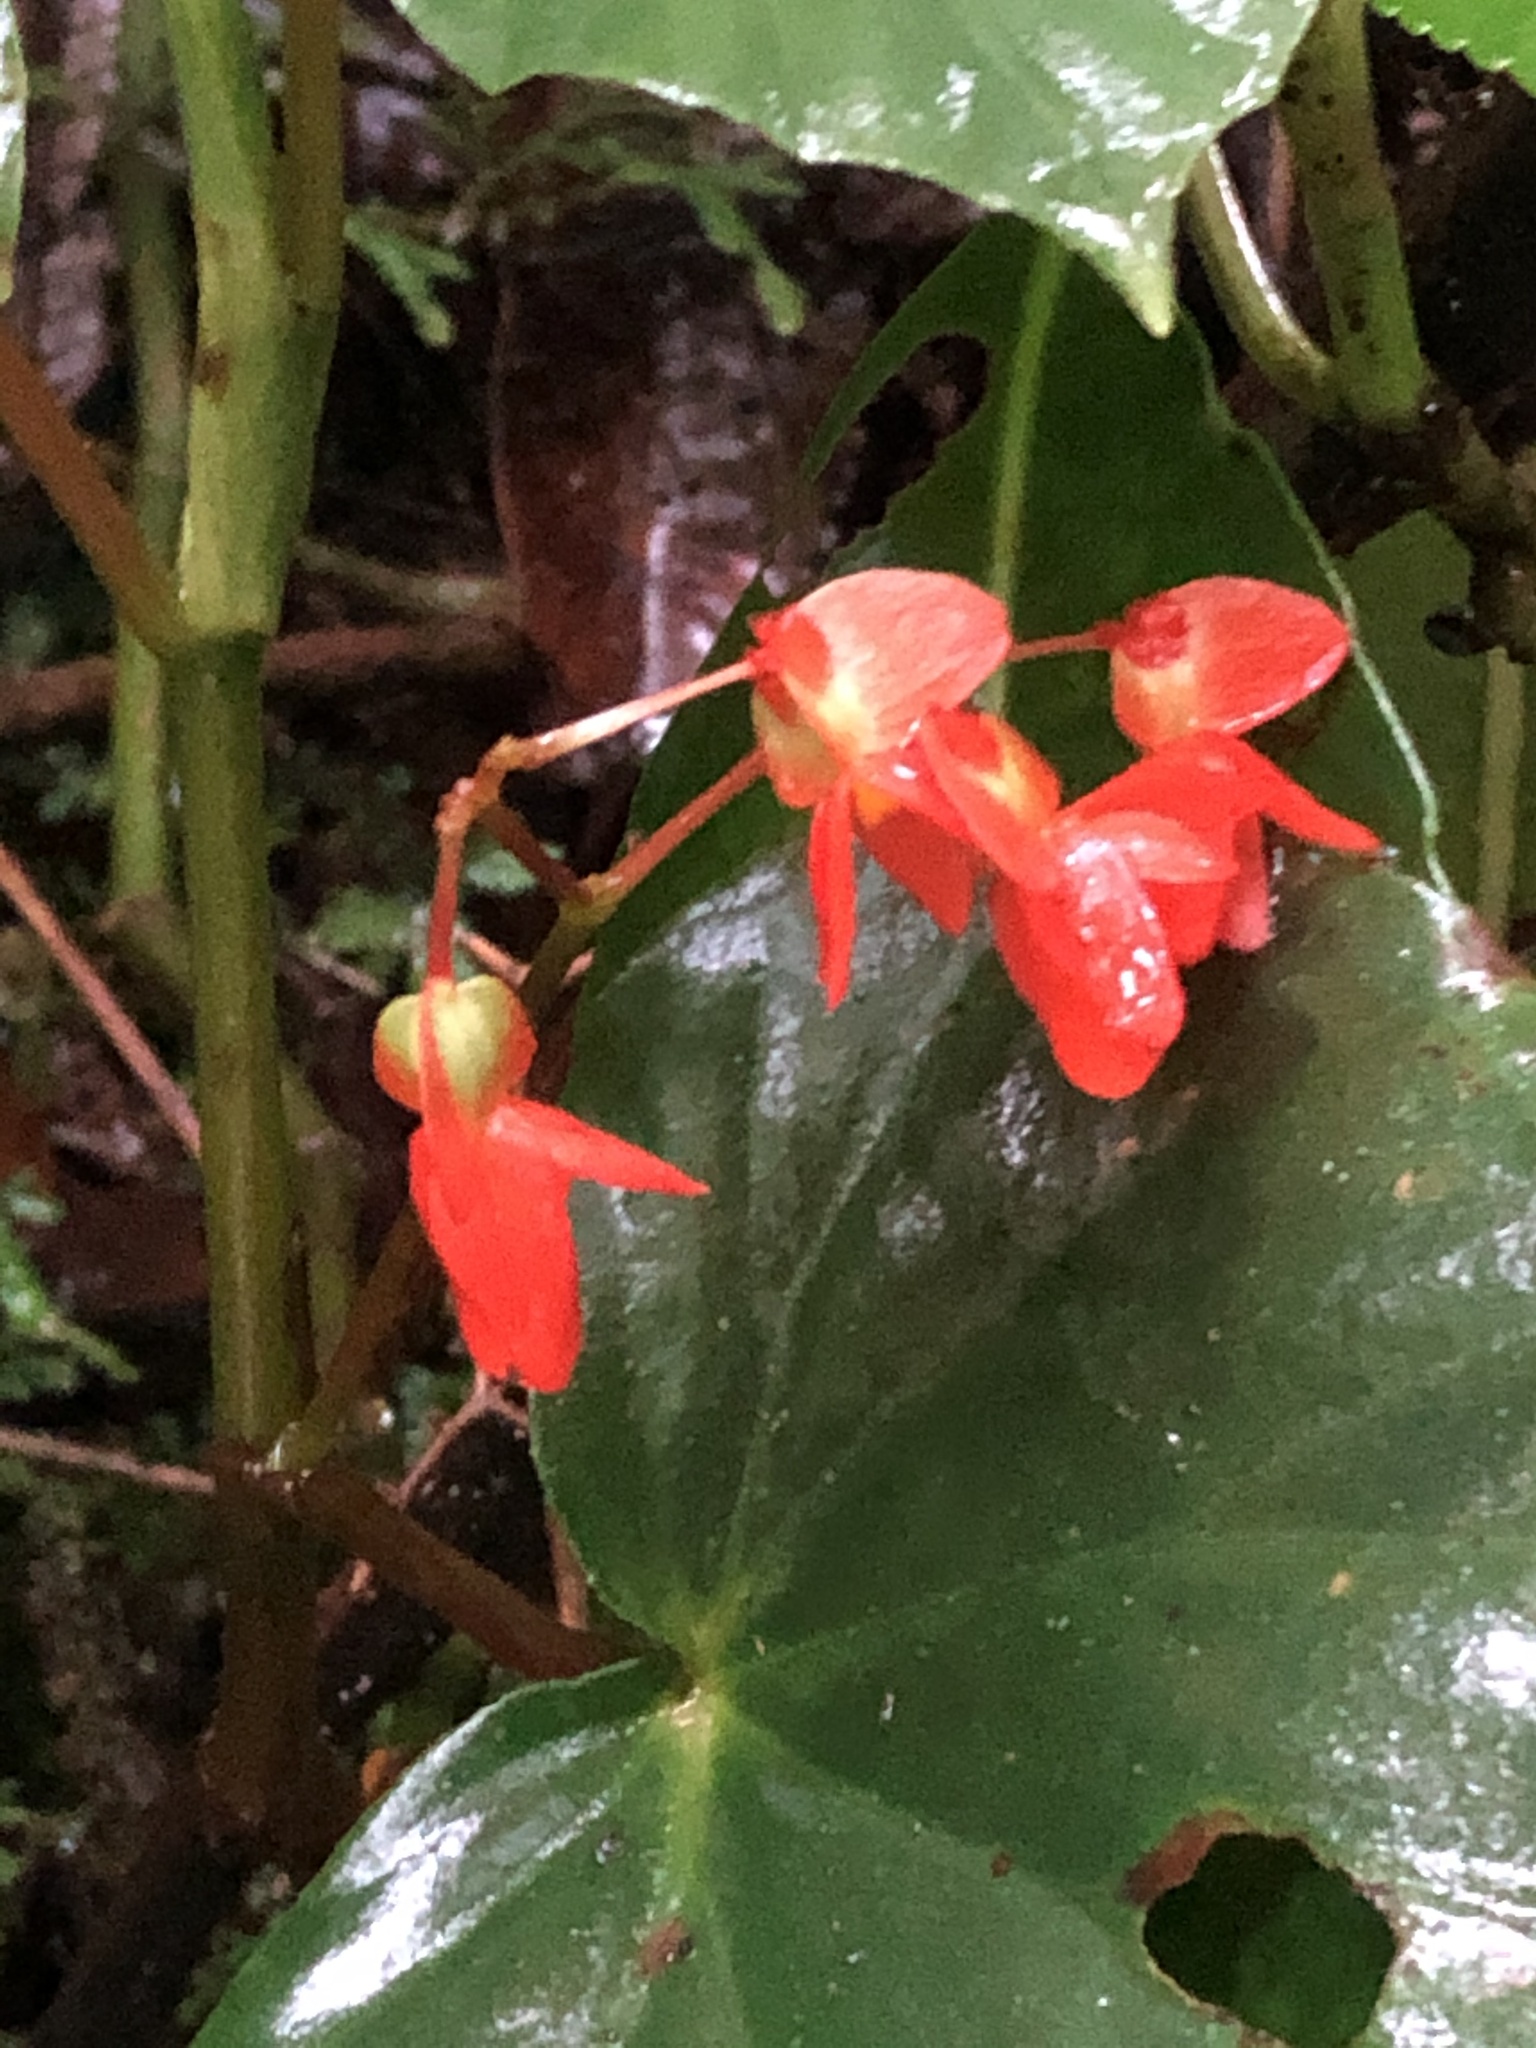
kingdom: Plantae
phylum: Tracheophyta
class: Magnoliopsida
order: Cucurbitales
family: Begoniaceae
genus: Begonia
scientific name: Begonia stenotepala
